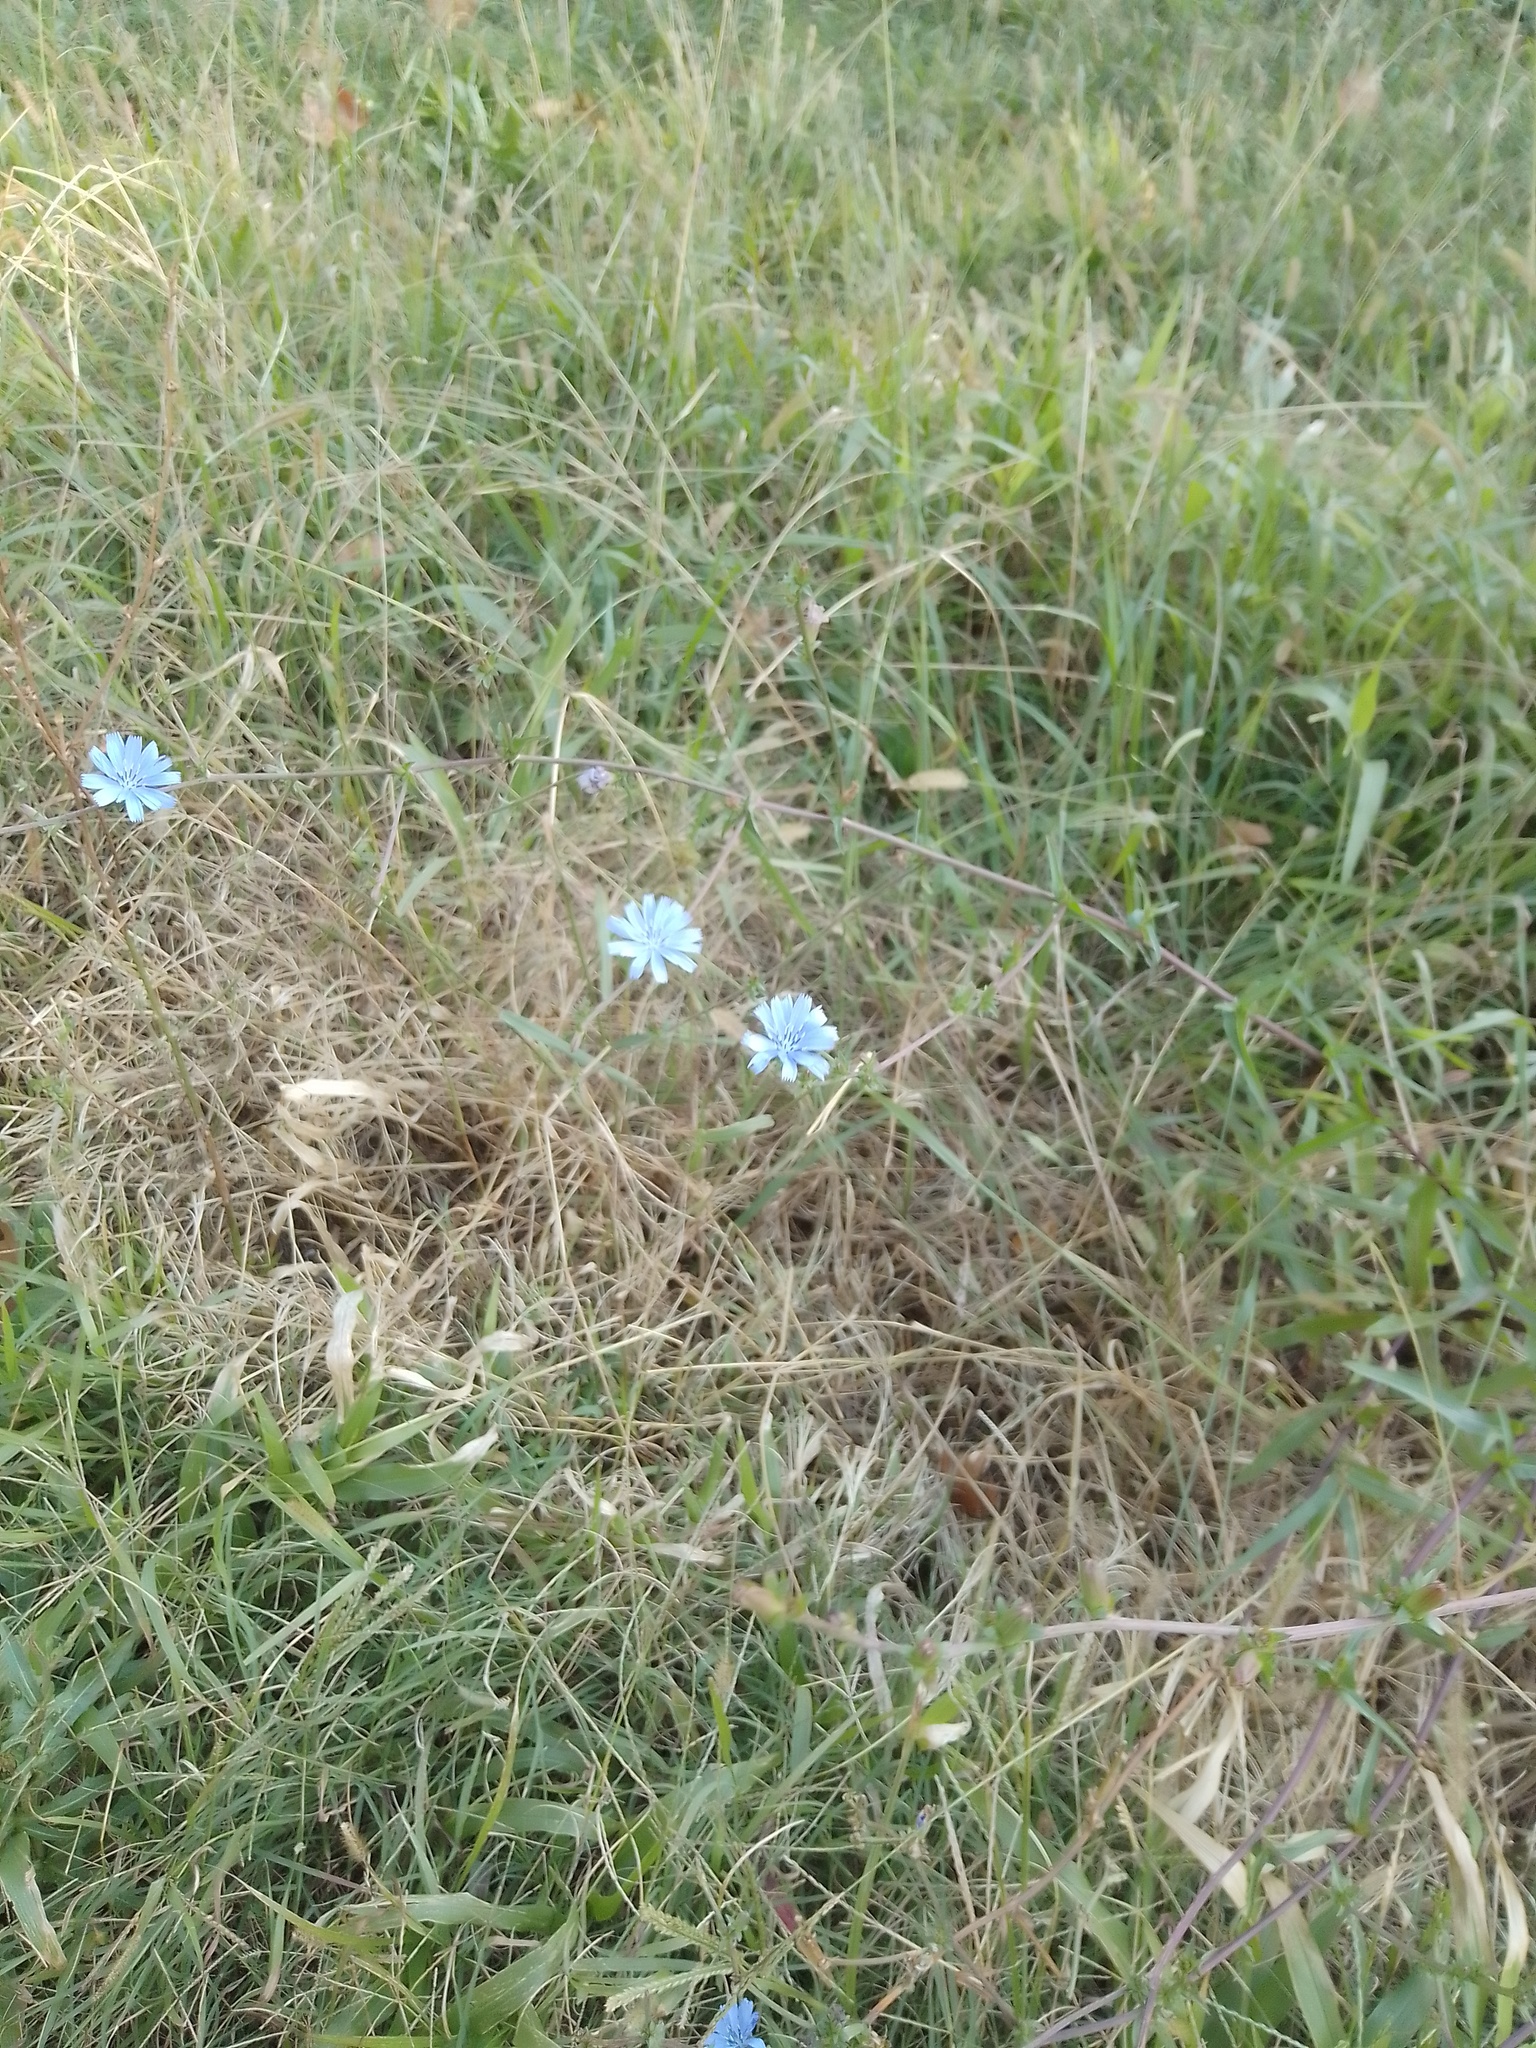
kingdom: Plantae
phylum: Tracheophyta
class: Magnoliopsida
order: Asterales
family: Asteraceae
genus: Cichorium
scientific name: Cichorium intybus
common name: Chicory
